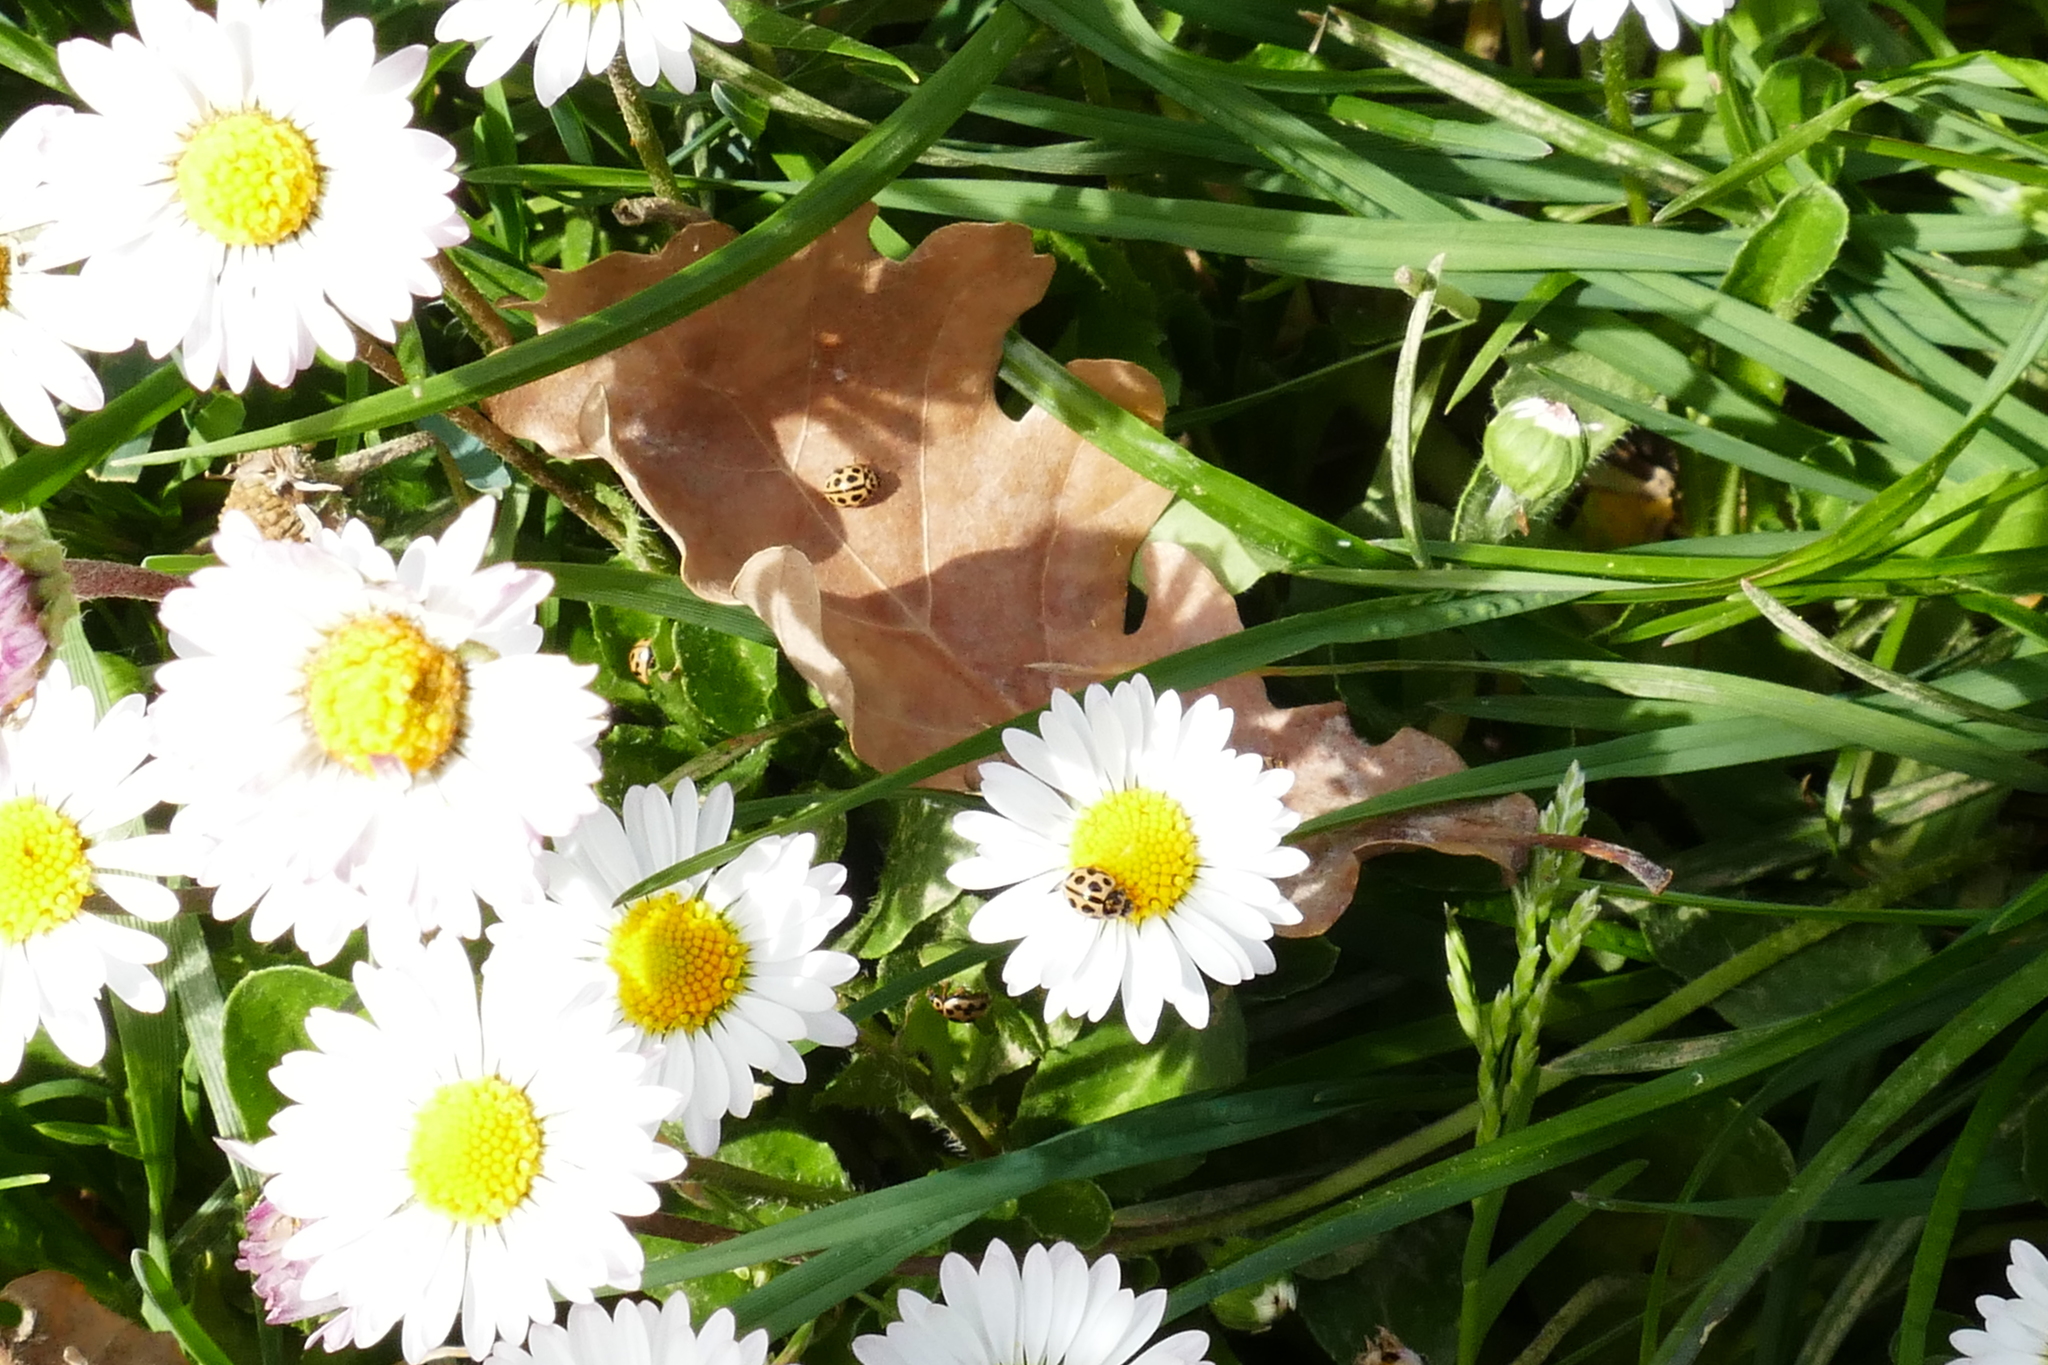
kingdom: Animalia
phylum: Arthropoda
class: Insecta
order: Coleoptera
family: Coccinellidae
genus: Tytthaspis
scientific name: Tytthaspis sedecimpunctata
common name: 16-spot ladybird
